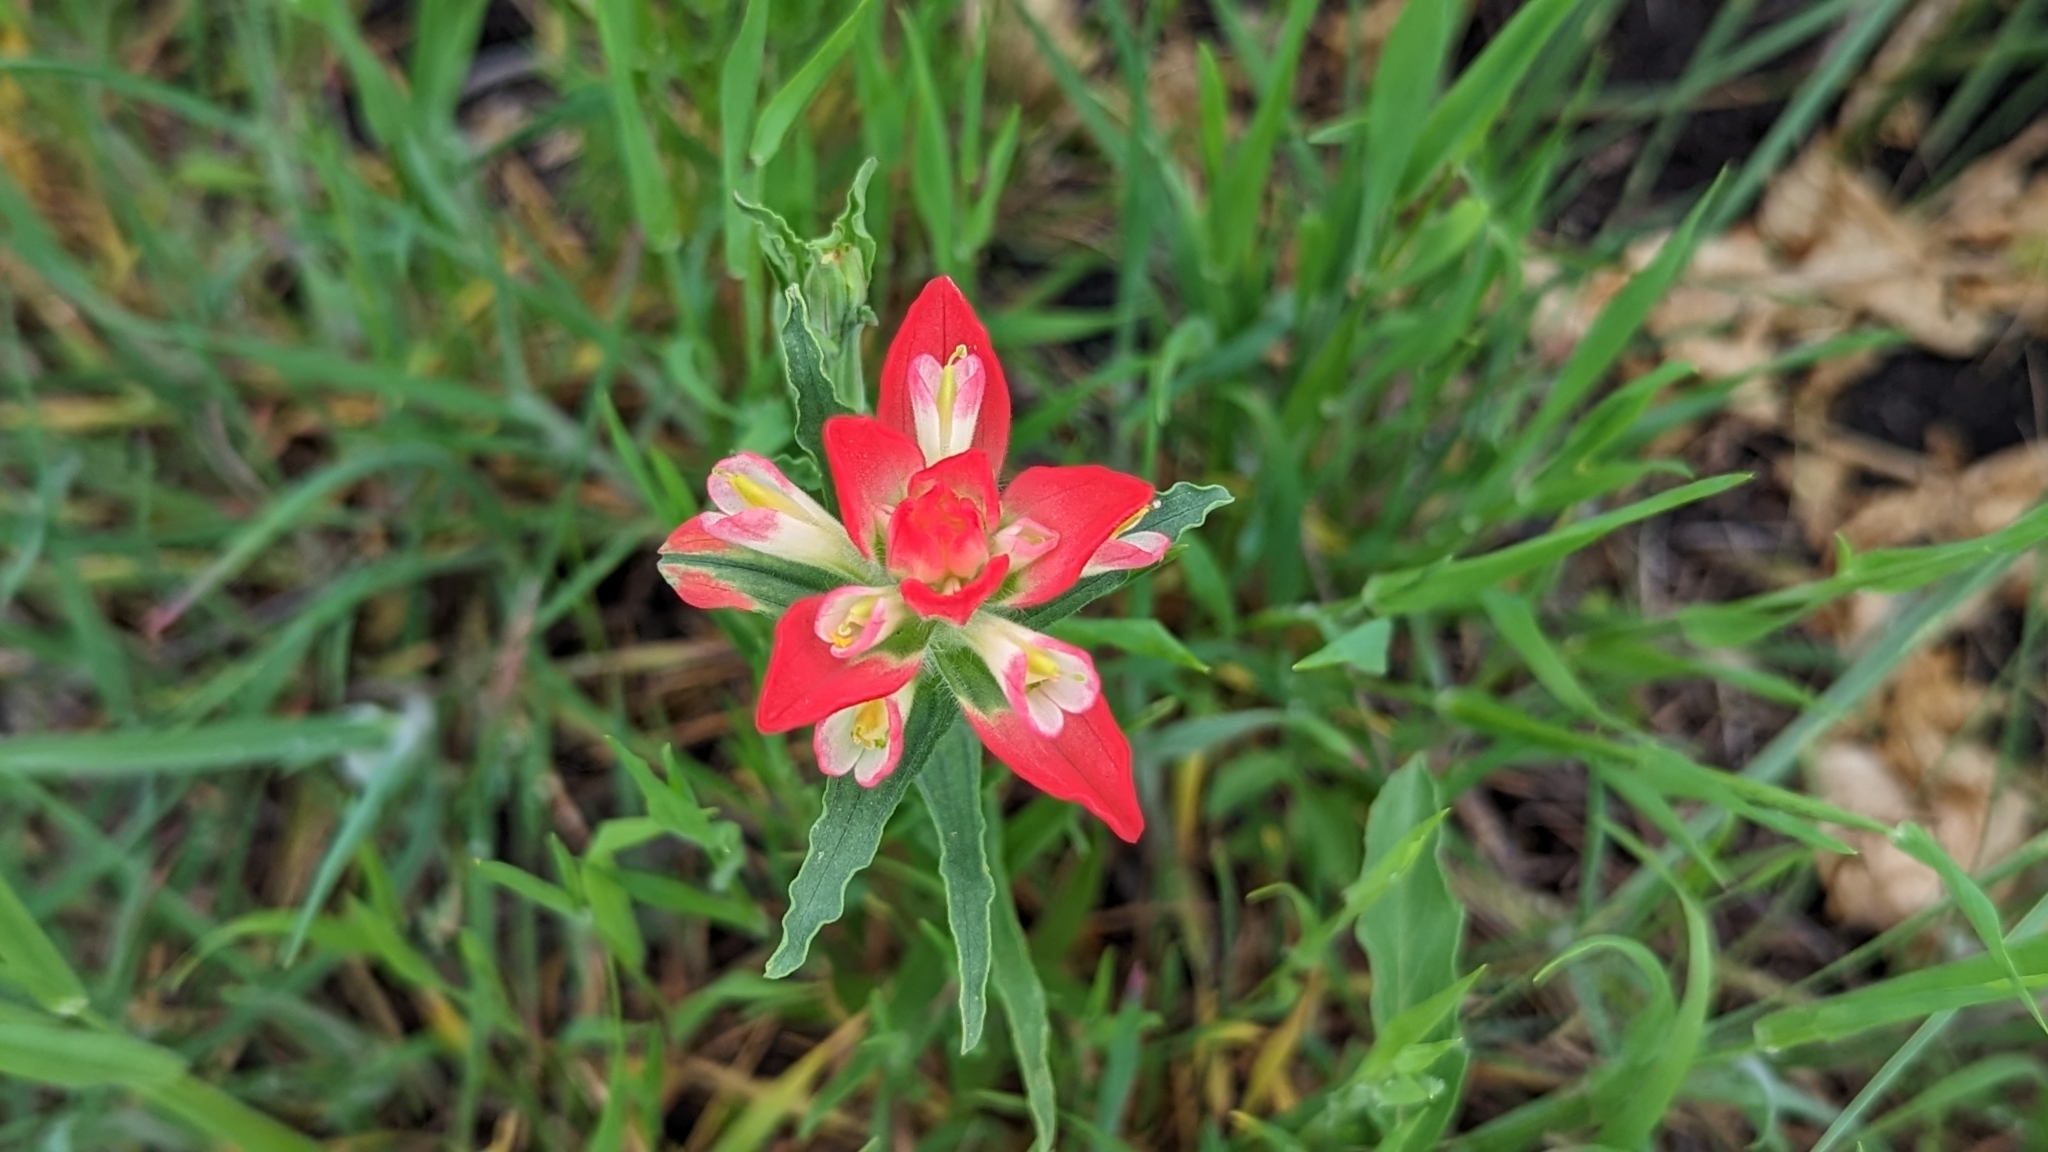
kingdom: Plantae
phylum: Tracheophyta
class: Magnoliopsida
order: Lamiales
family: Orobanchaceae
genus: Castilleja
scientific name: Castilleja indivisa
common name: Texas paintbrush
